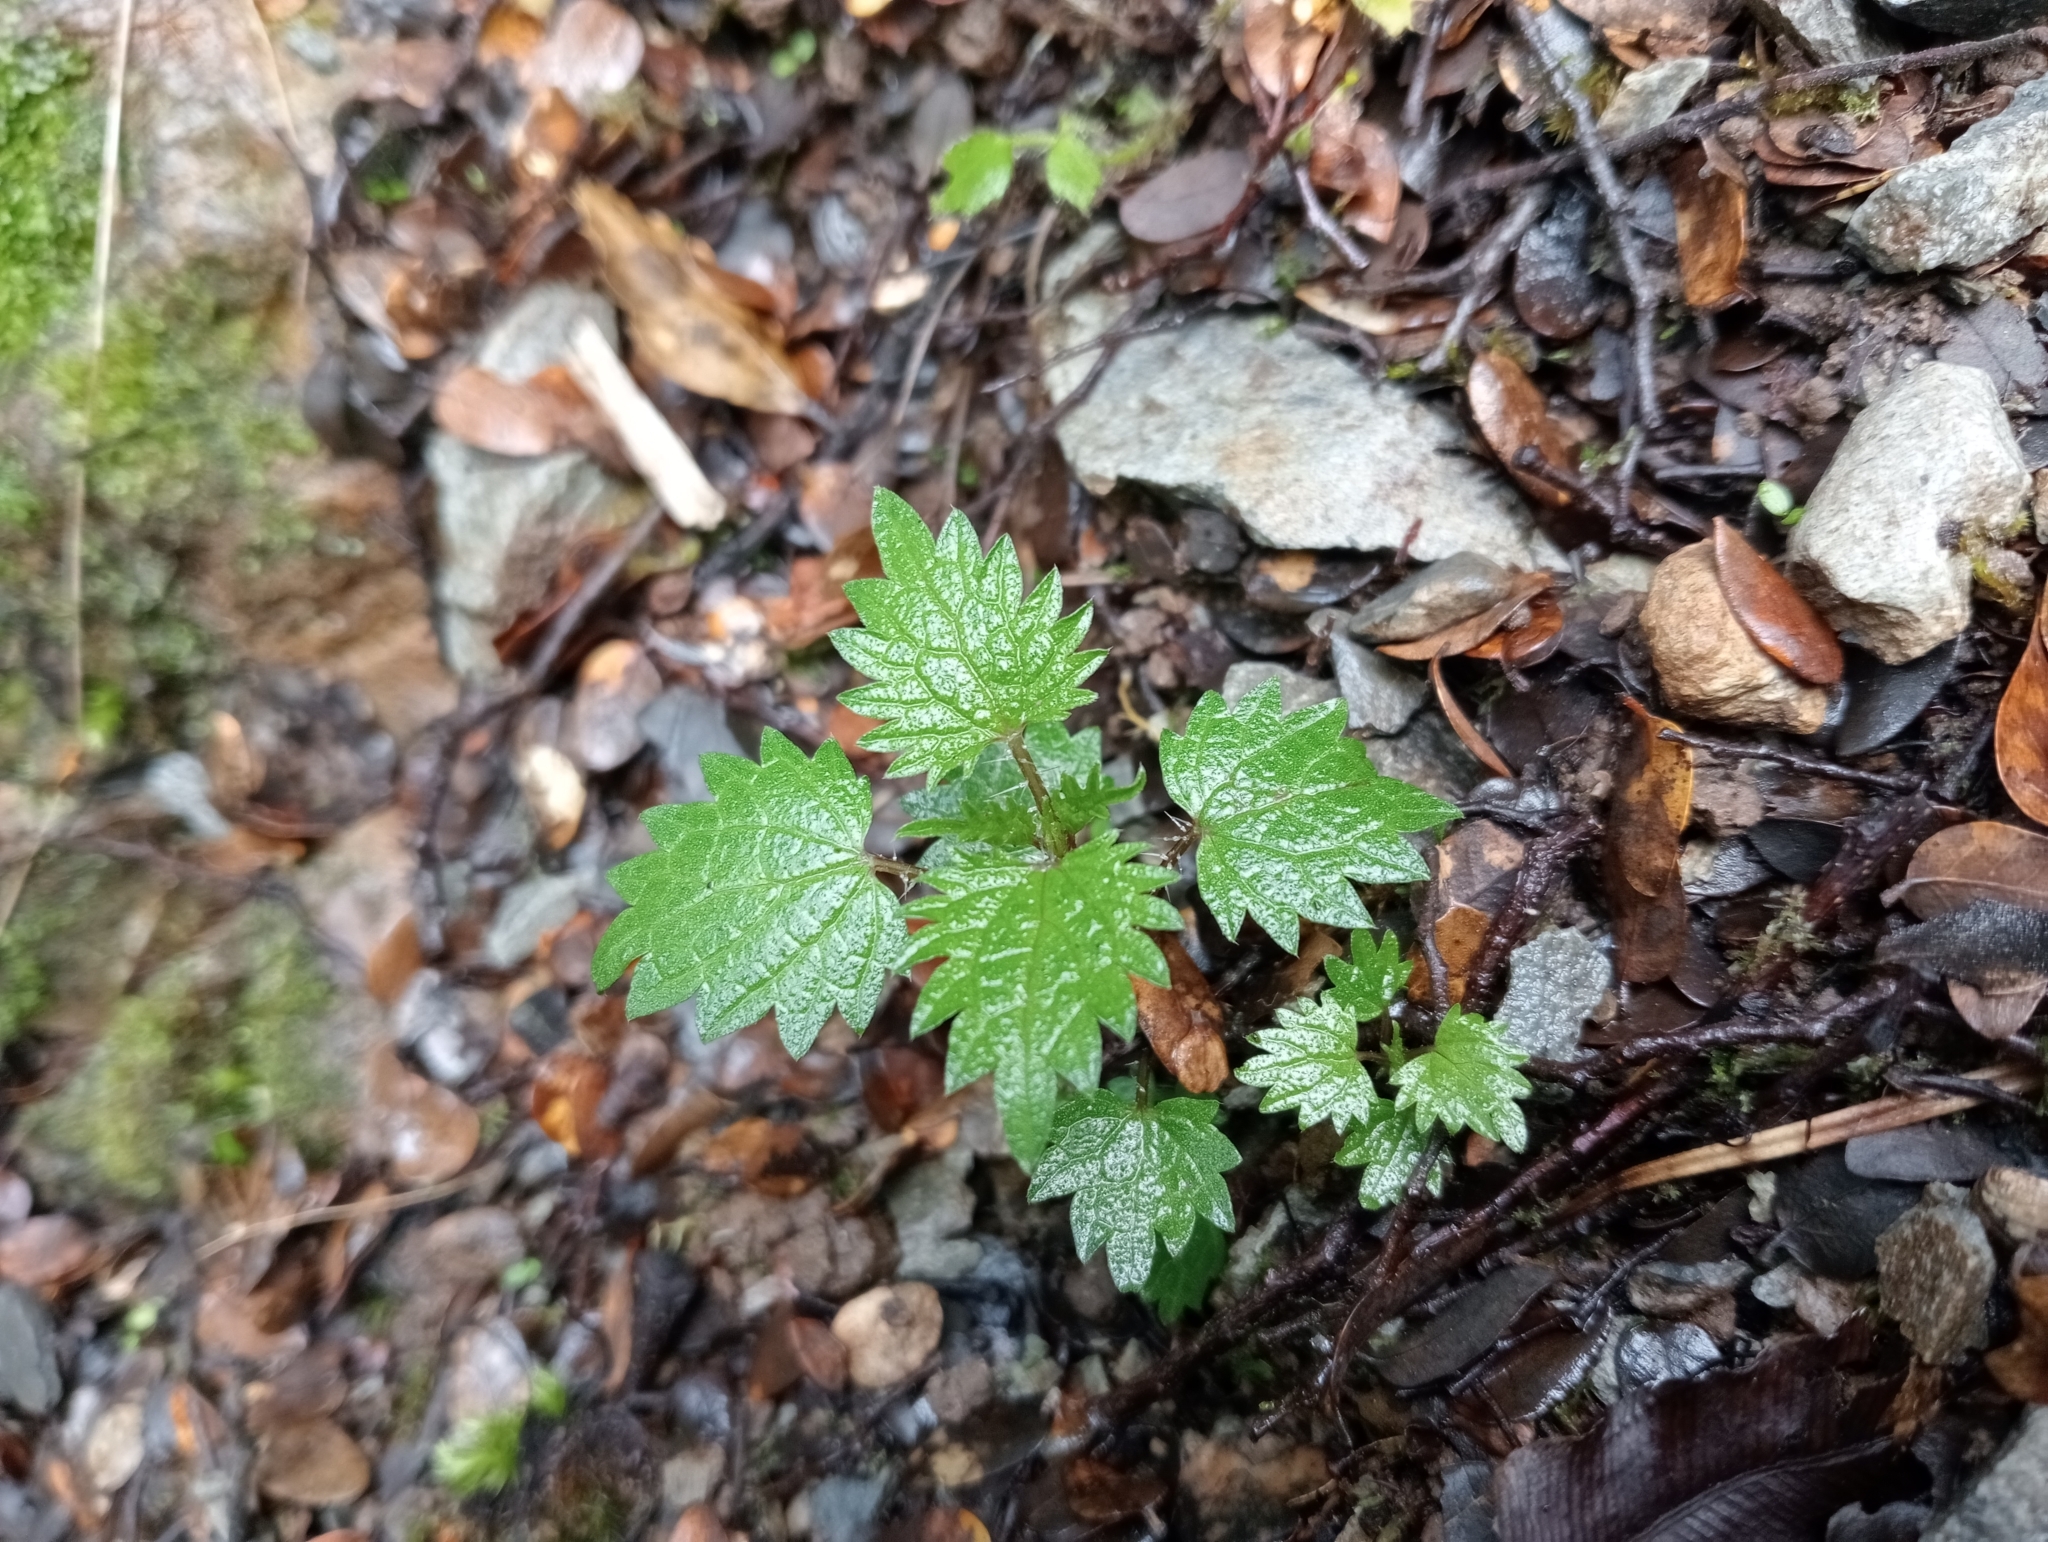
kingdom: Plantae
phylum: Tracheophyta
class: Magnoliopsida
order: Rosales
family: Urticaceae
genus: Urtica
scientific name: Urtica sykesii
